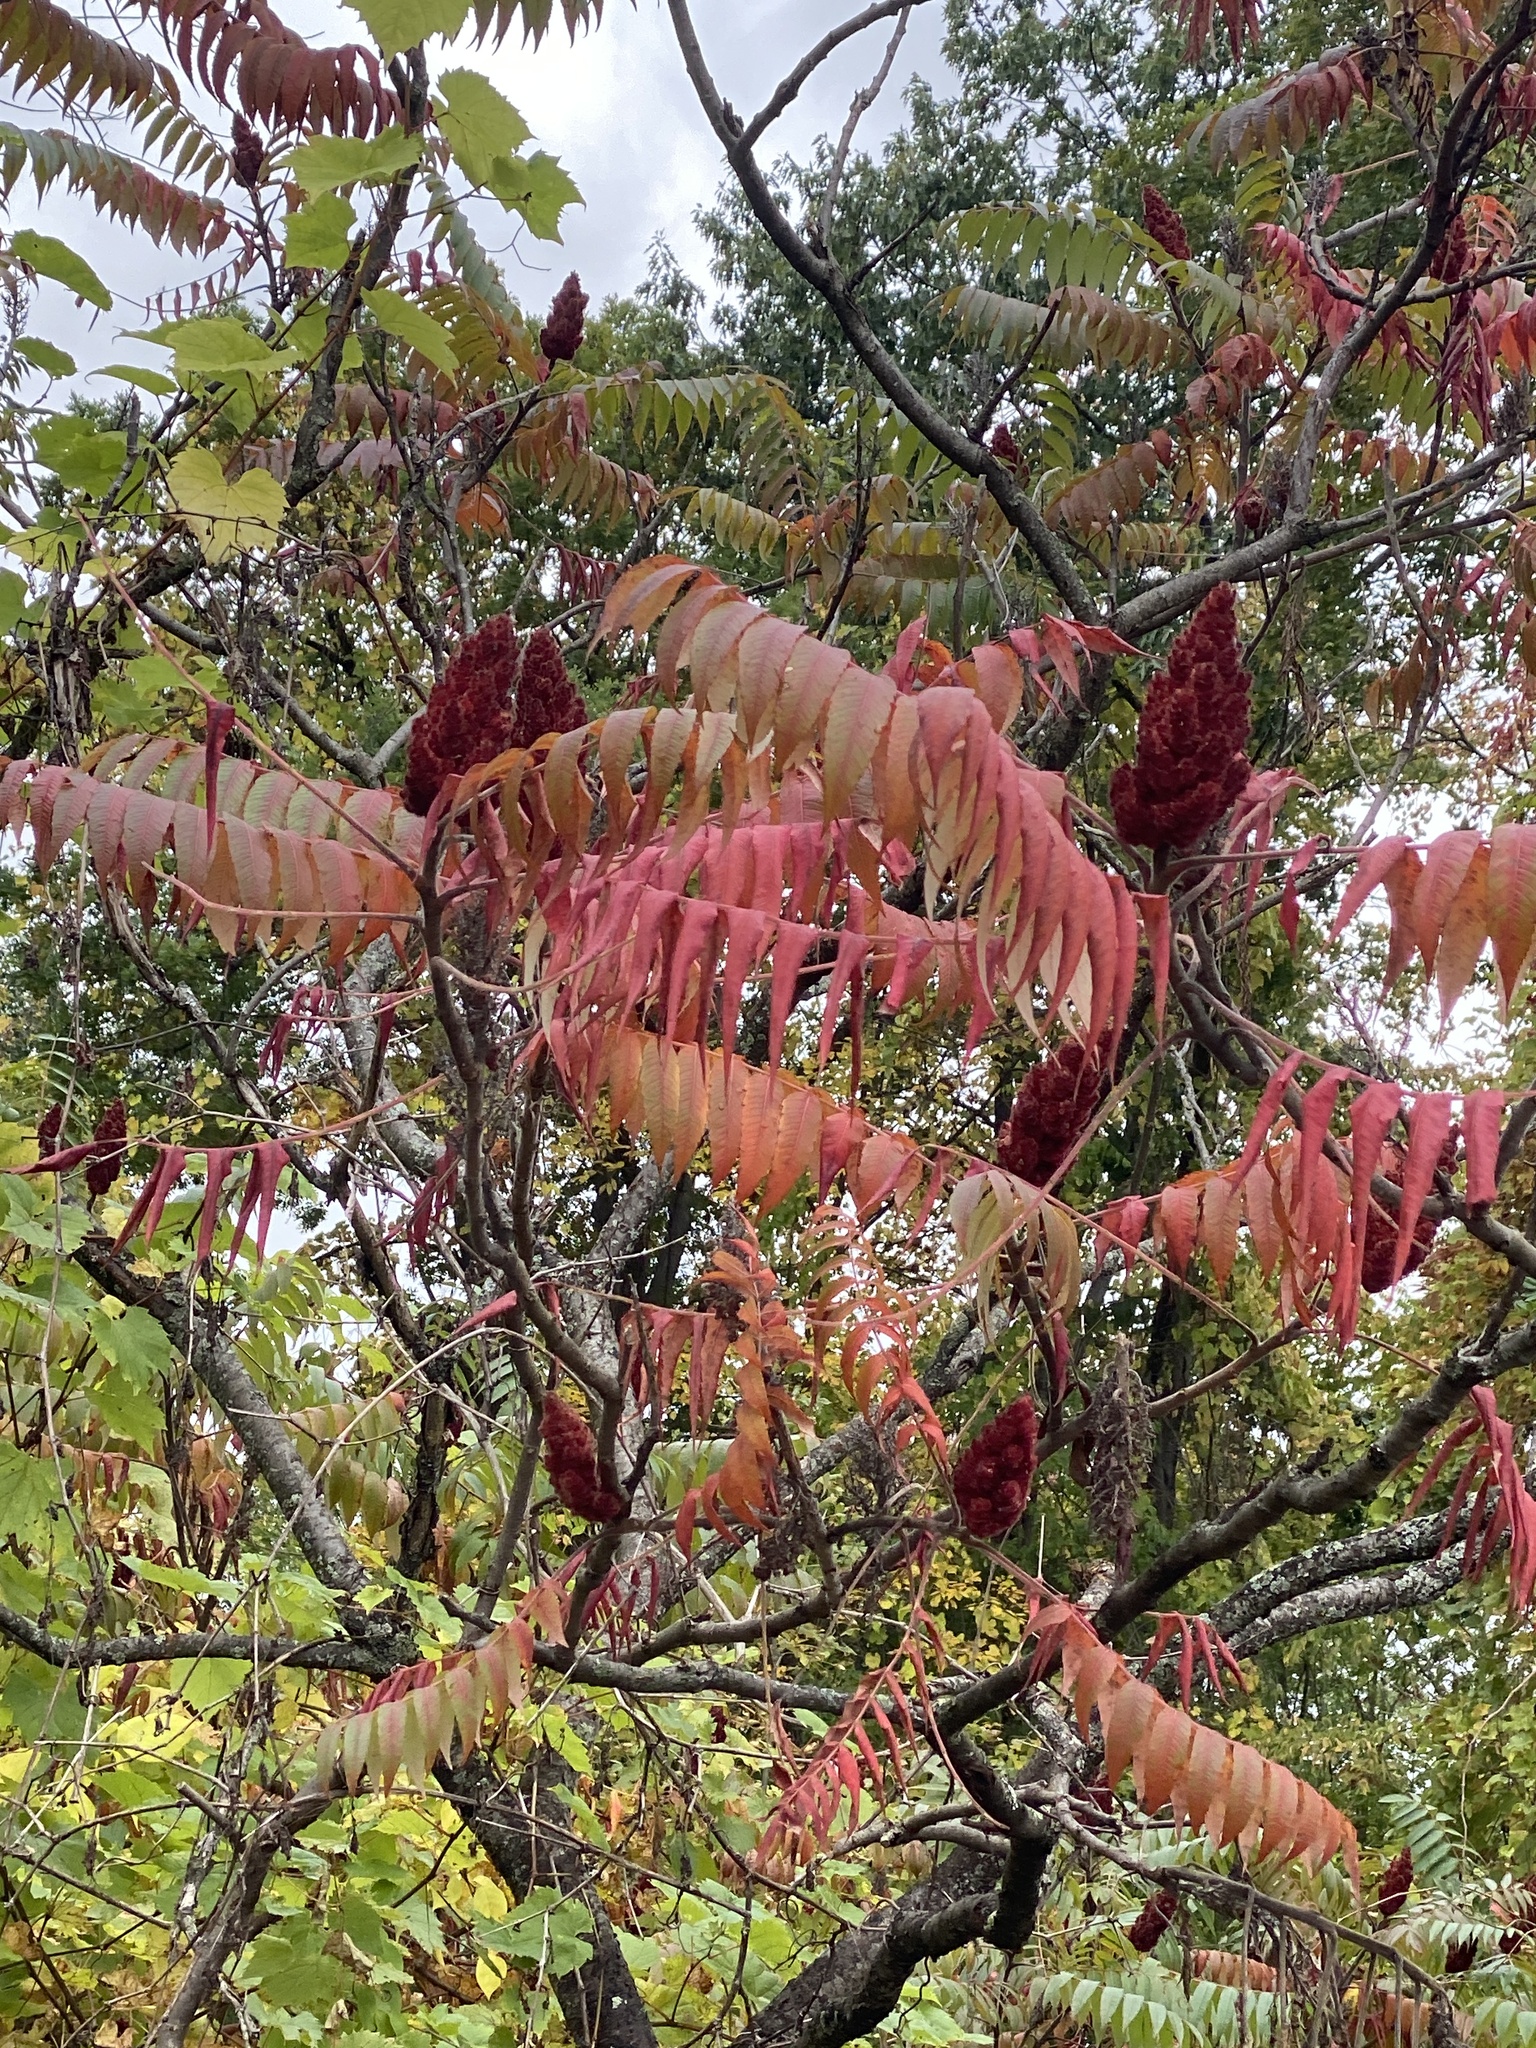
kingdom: Plantae
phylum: Tracheophyta
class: Magnoliopsida
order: Sapindales
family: Anacardiaceae
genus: Rhus
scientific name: Rhus typhina
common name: Staghorn sumac
